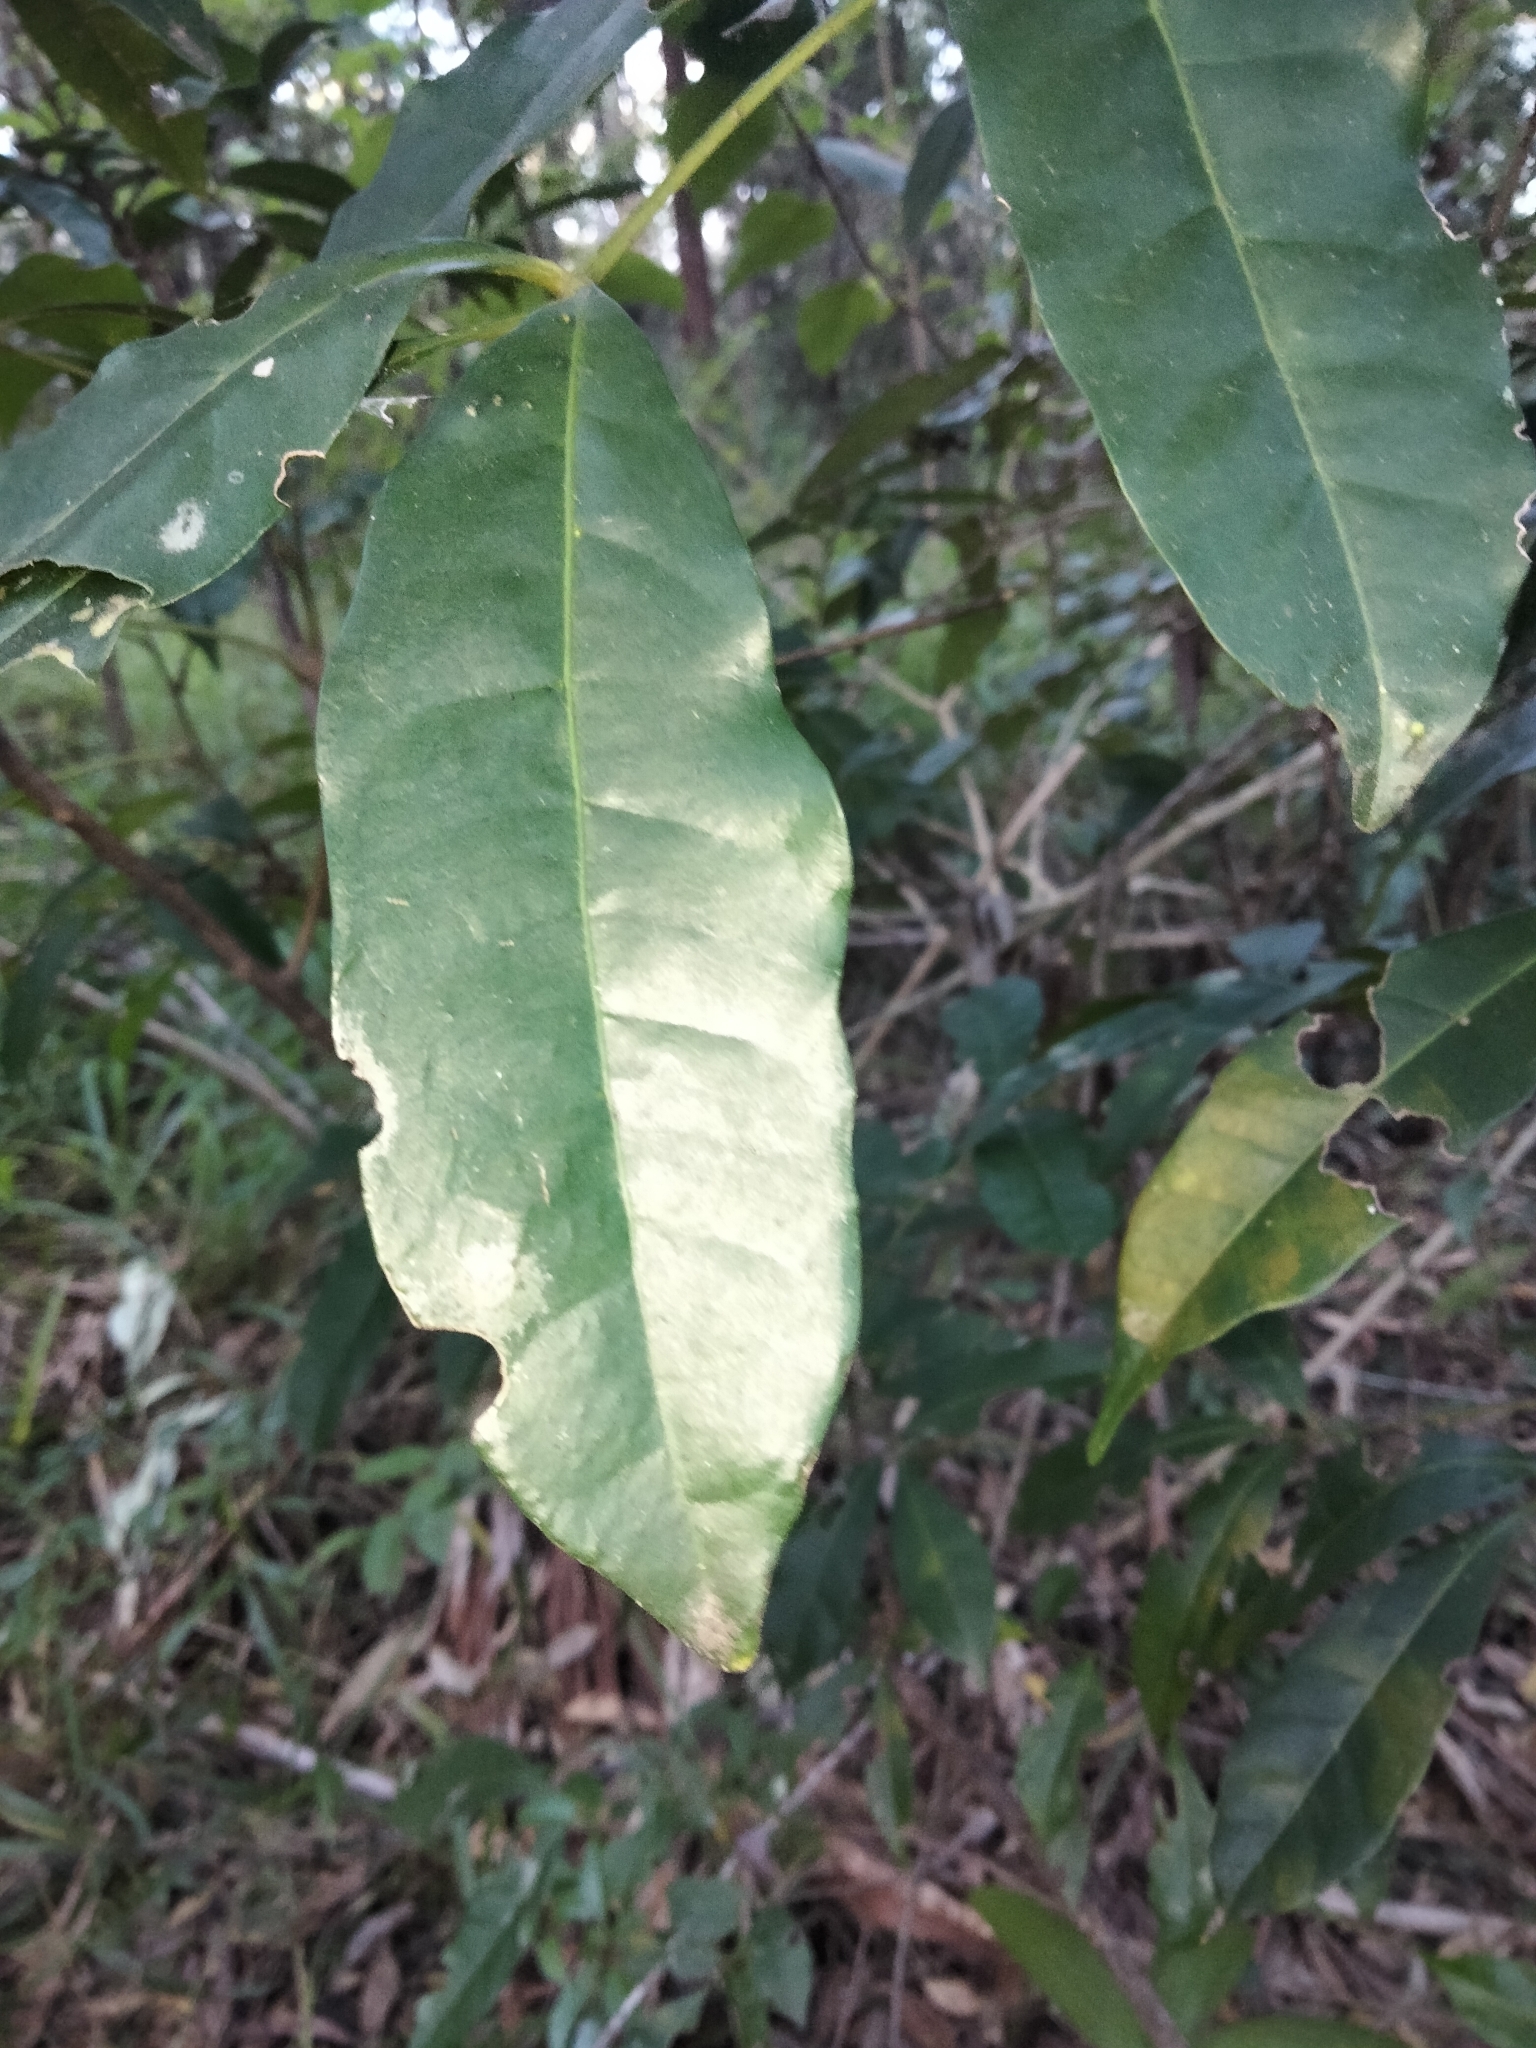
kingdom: Plantae
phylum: Tracheophyta
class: Magnoliopsida
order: Sapindales
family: Meliaceae
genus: Synoum
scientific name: Synoum glandulosum
